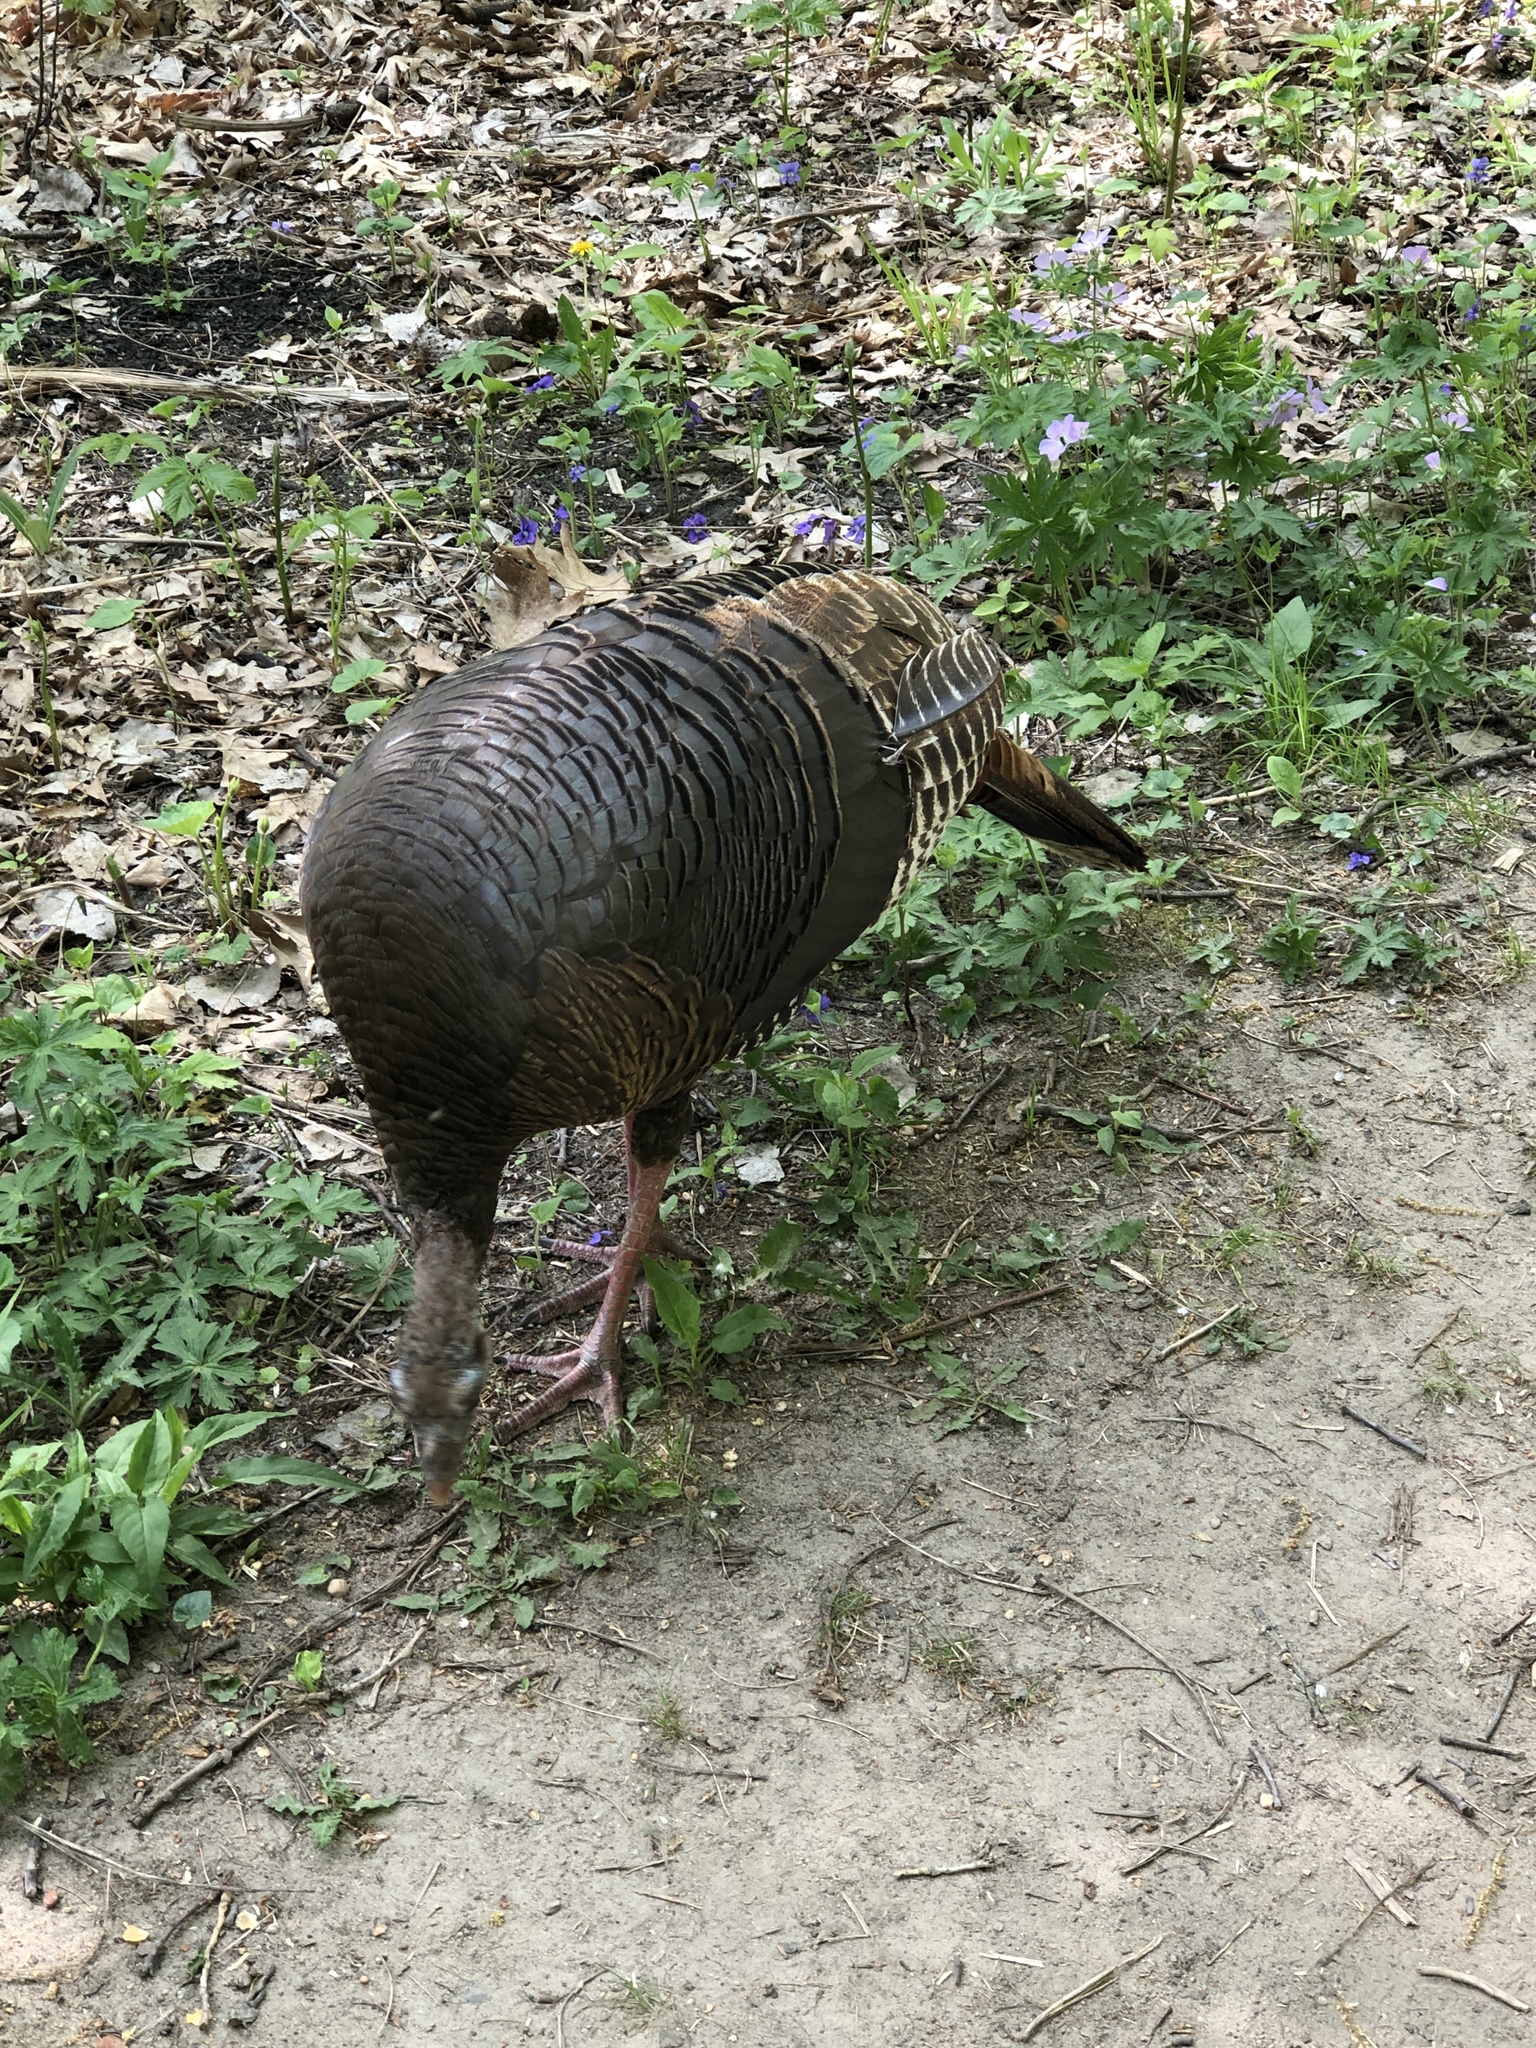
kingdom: Animalia
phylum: Chordata
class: Aves
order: Galliformes
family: Phasianidae
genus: Meleagris
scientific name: Meleagris gallopavo
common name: Wild turkey
